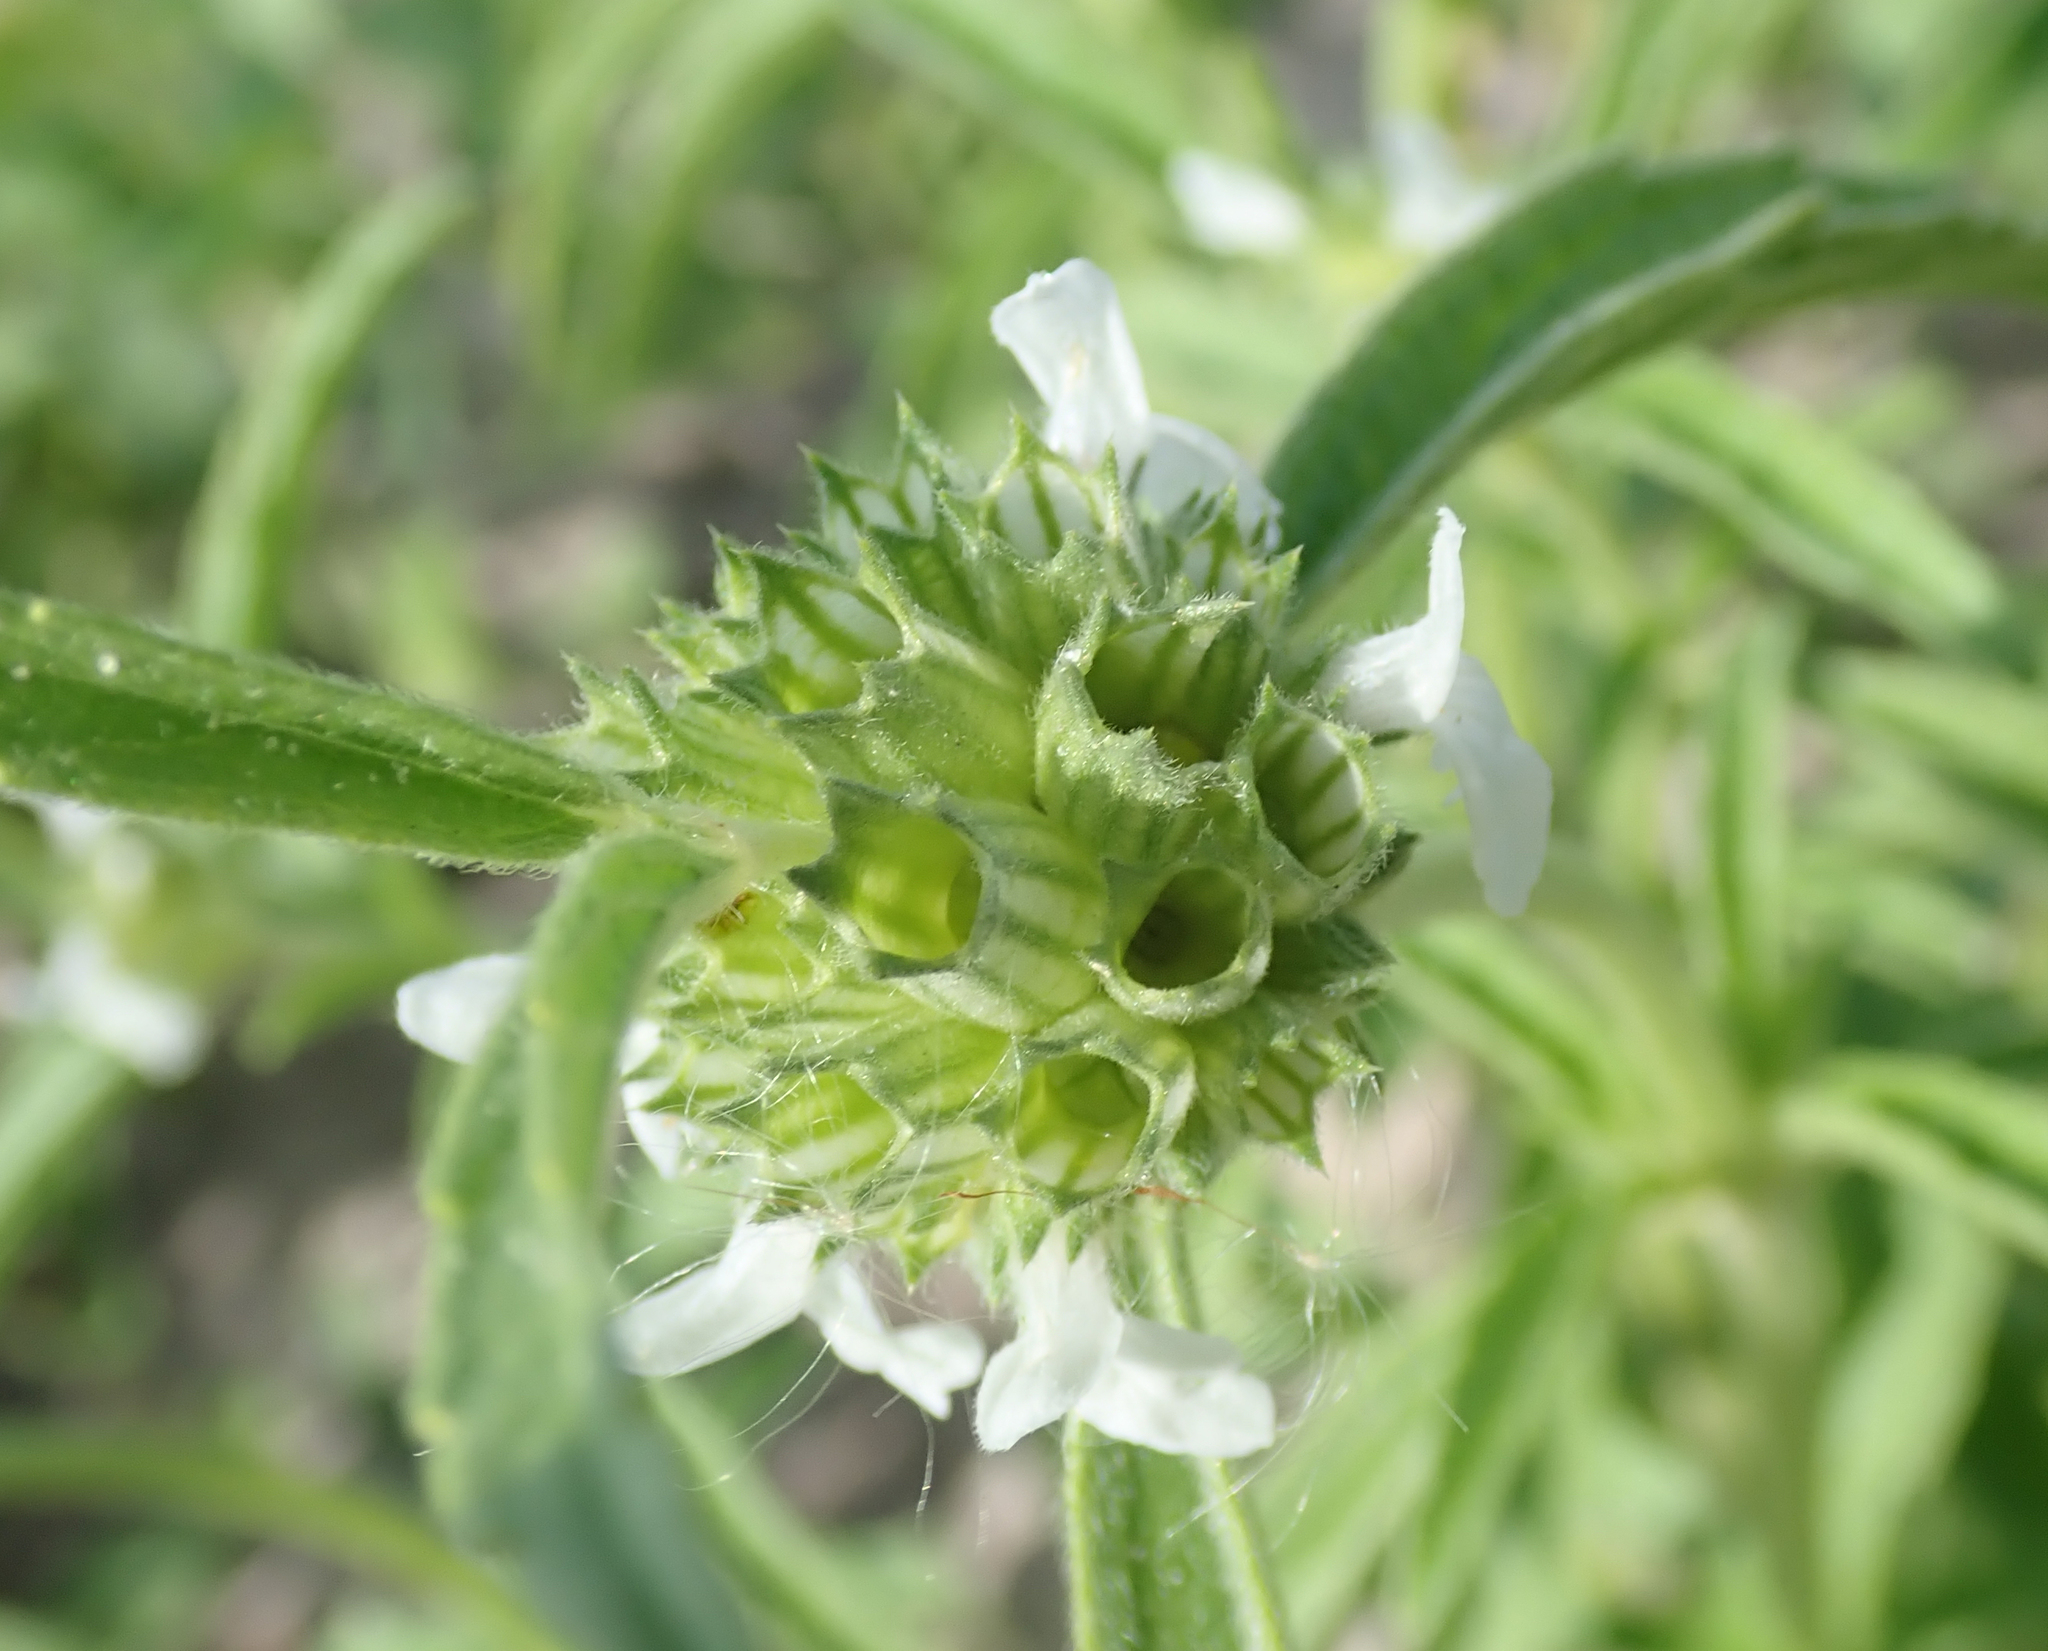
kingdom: Plantae
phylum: Tracheophyta
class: Magnoliopsida
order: Lamiales
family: Lamiaceae
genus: Acrotome
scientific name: Acrotome inflata
